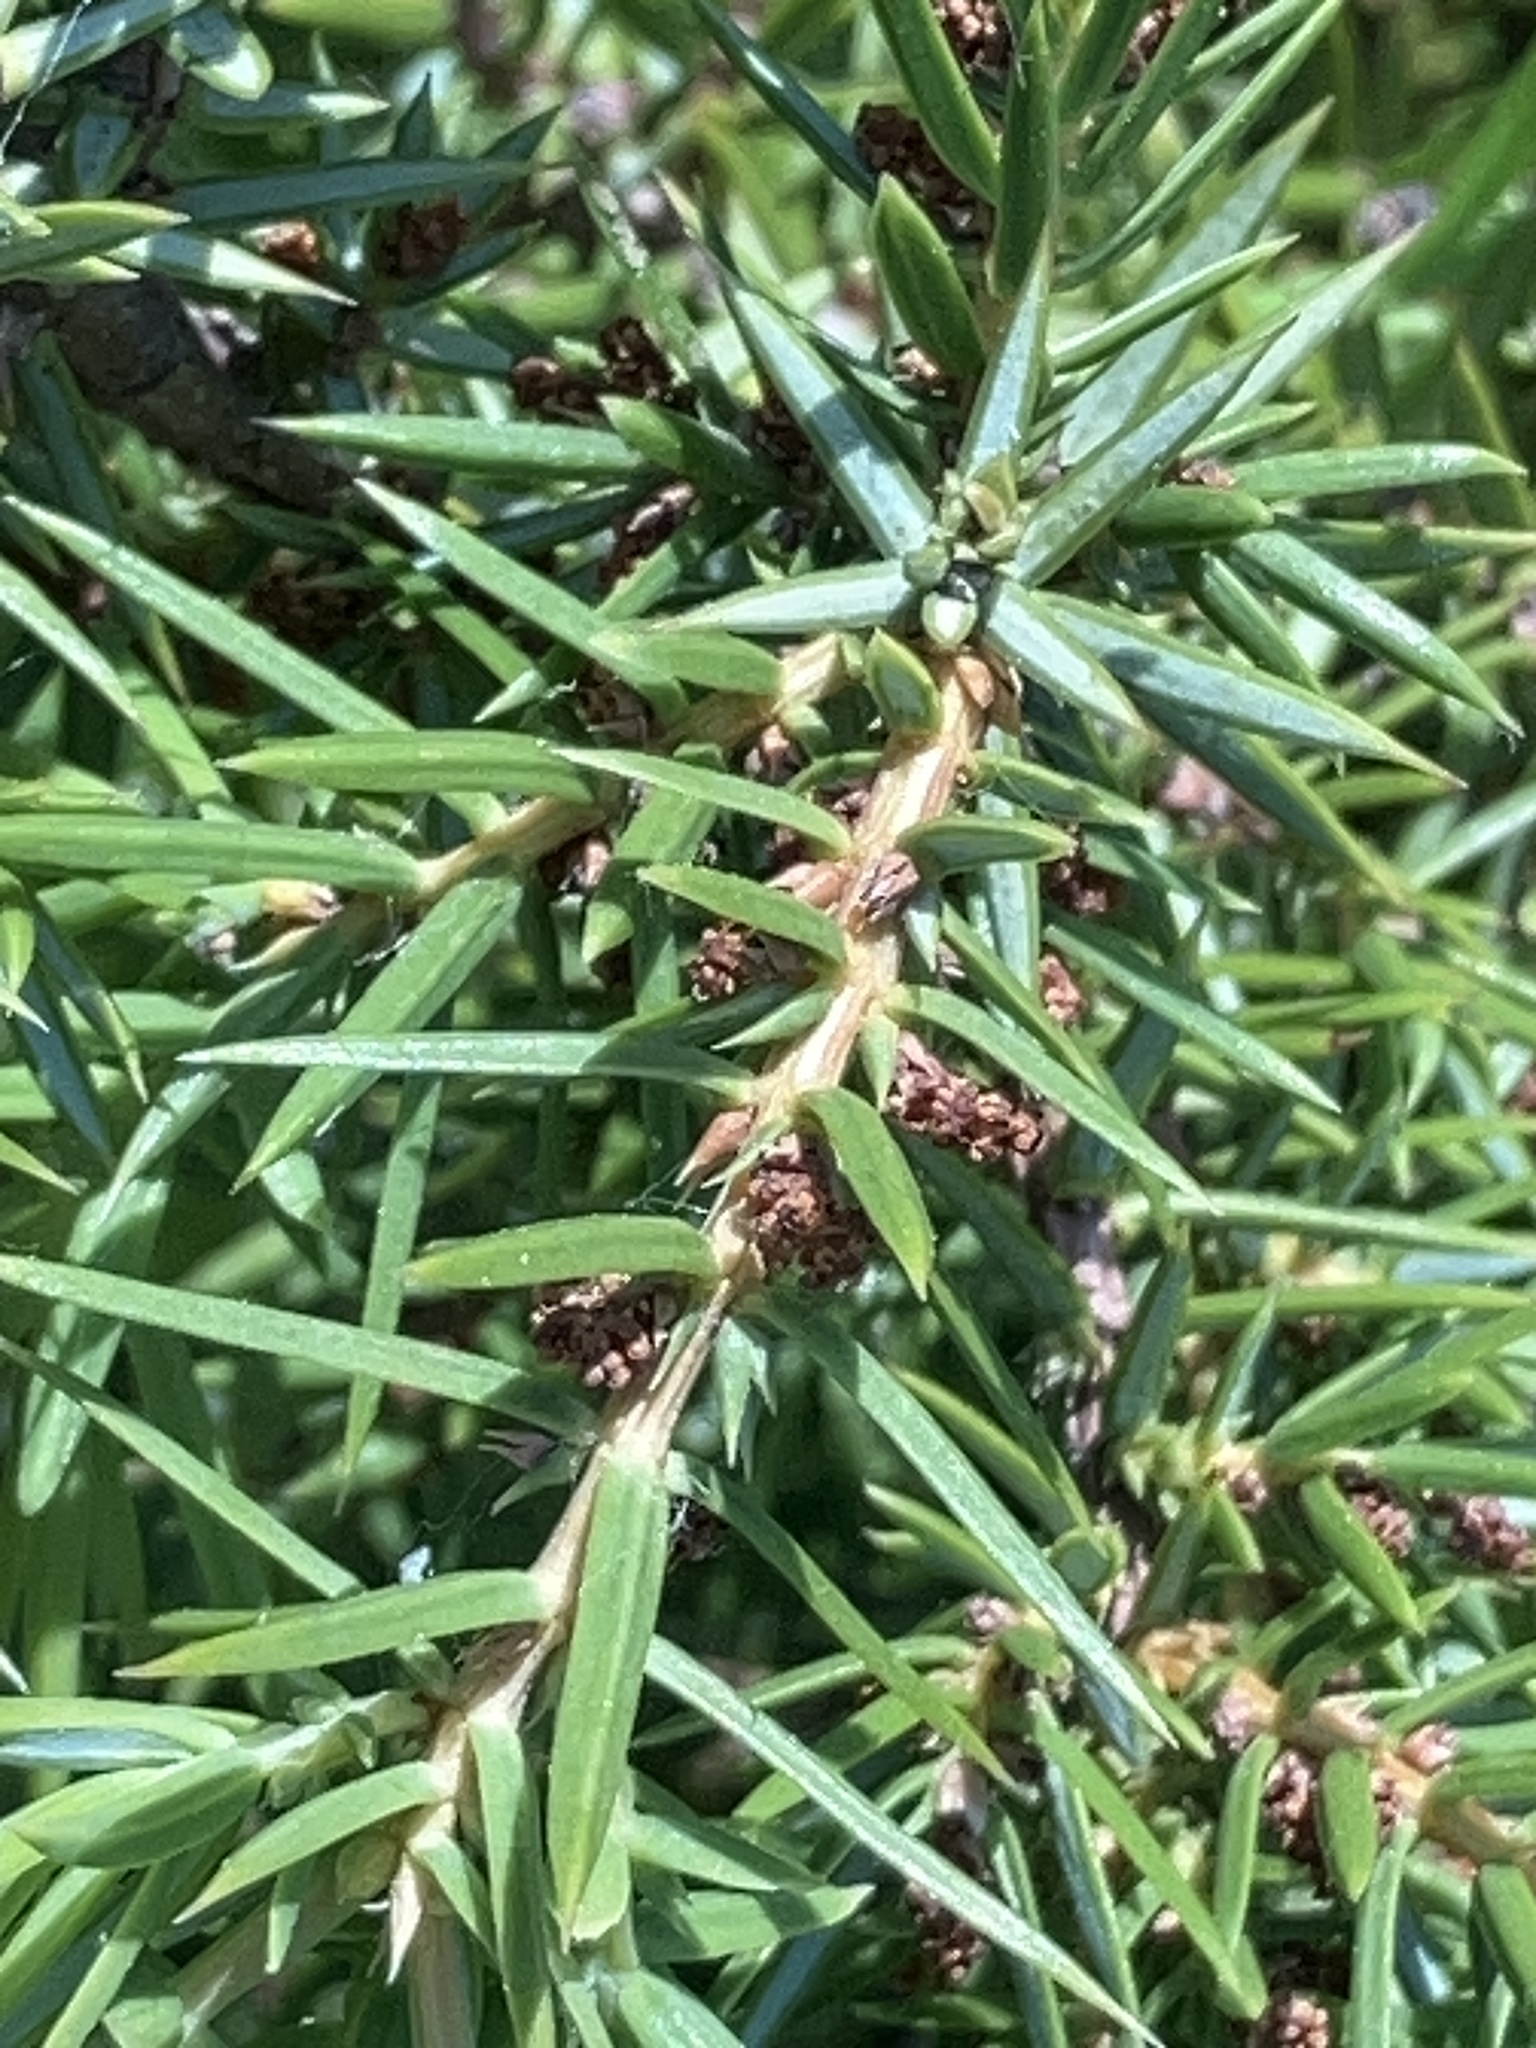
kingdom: Plantae
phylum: Tracheophyta
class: Pinopsida
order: Pinales
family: Cupressaceae
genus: Juniperus
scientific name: Juniperus communis
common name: Common juniper
